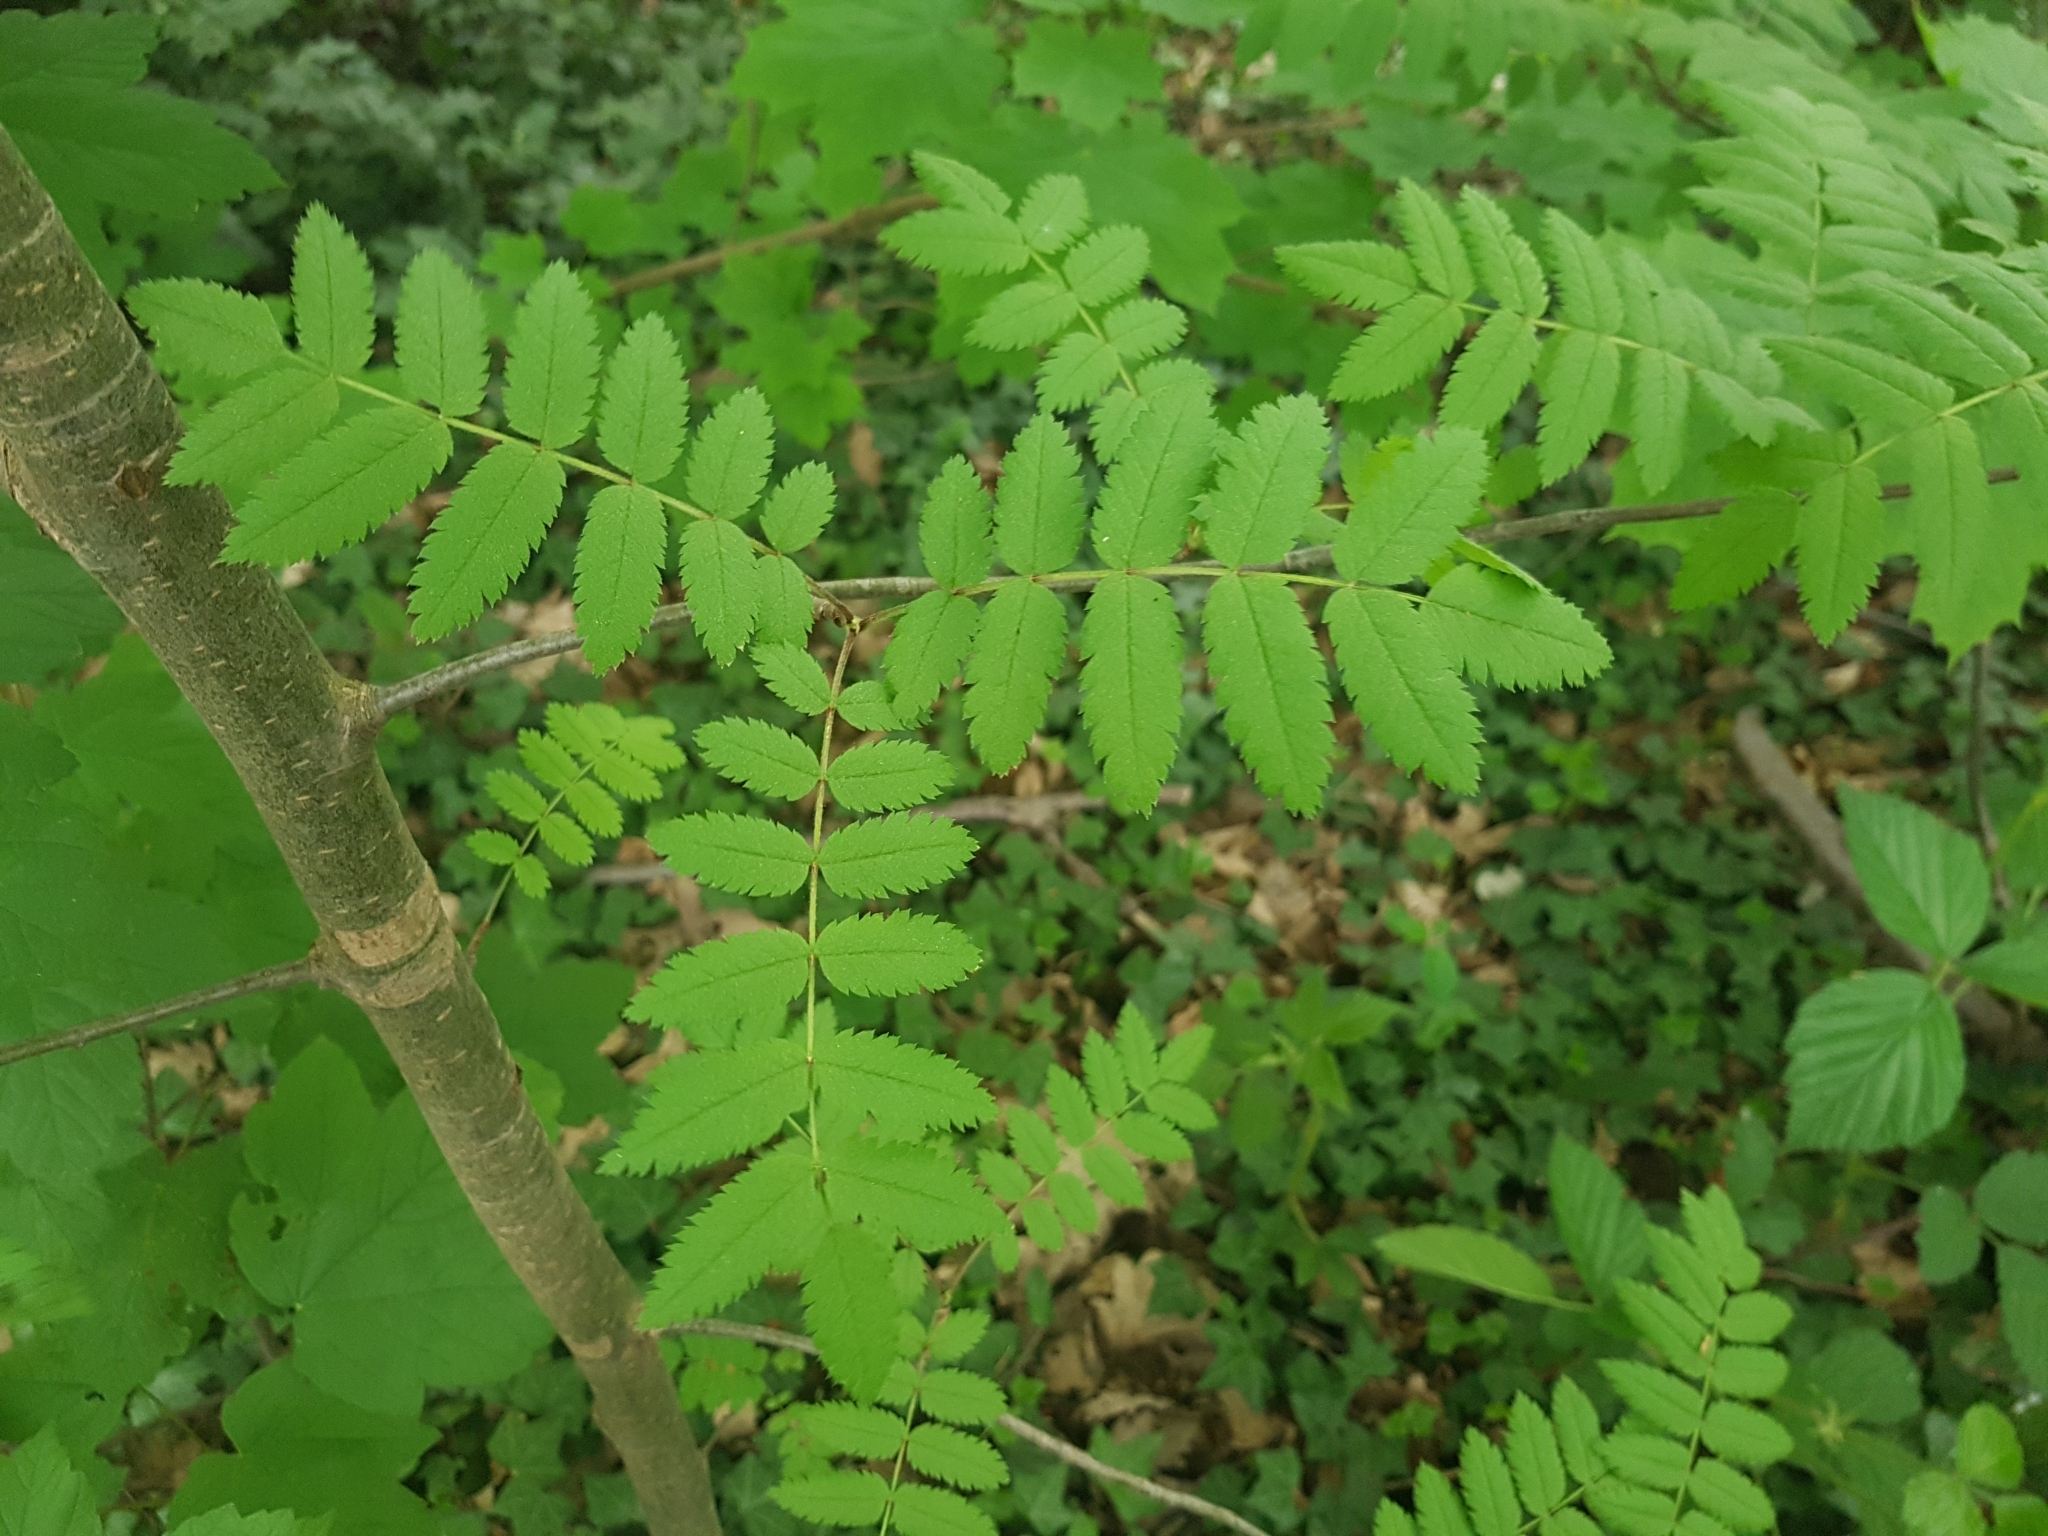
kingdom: Plantae
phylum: Tracheophyta
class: Magnoliopsida
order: Rosales
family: Rosaceae
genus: Sorbus
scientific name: Sorbus aucuparia
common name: Rowan
